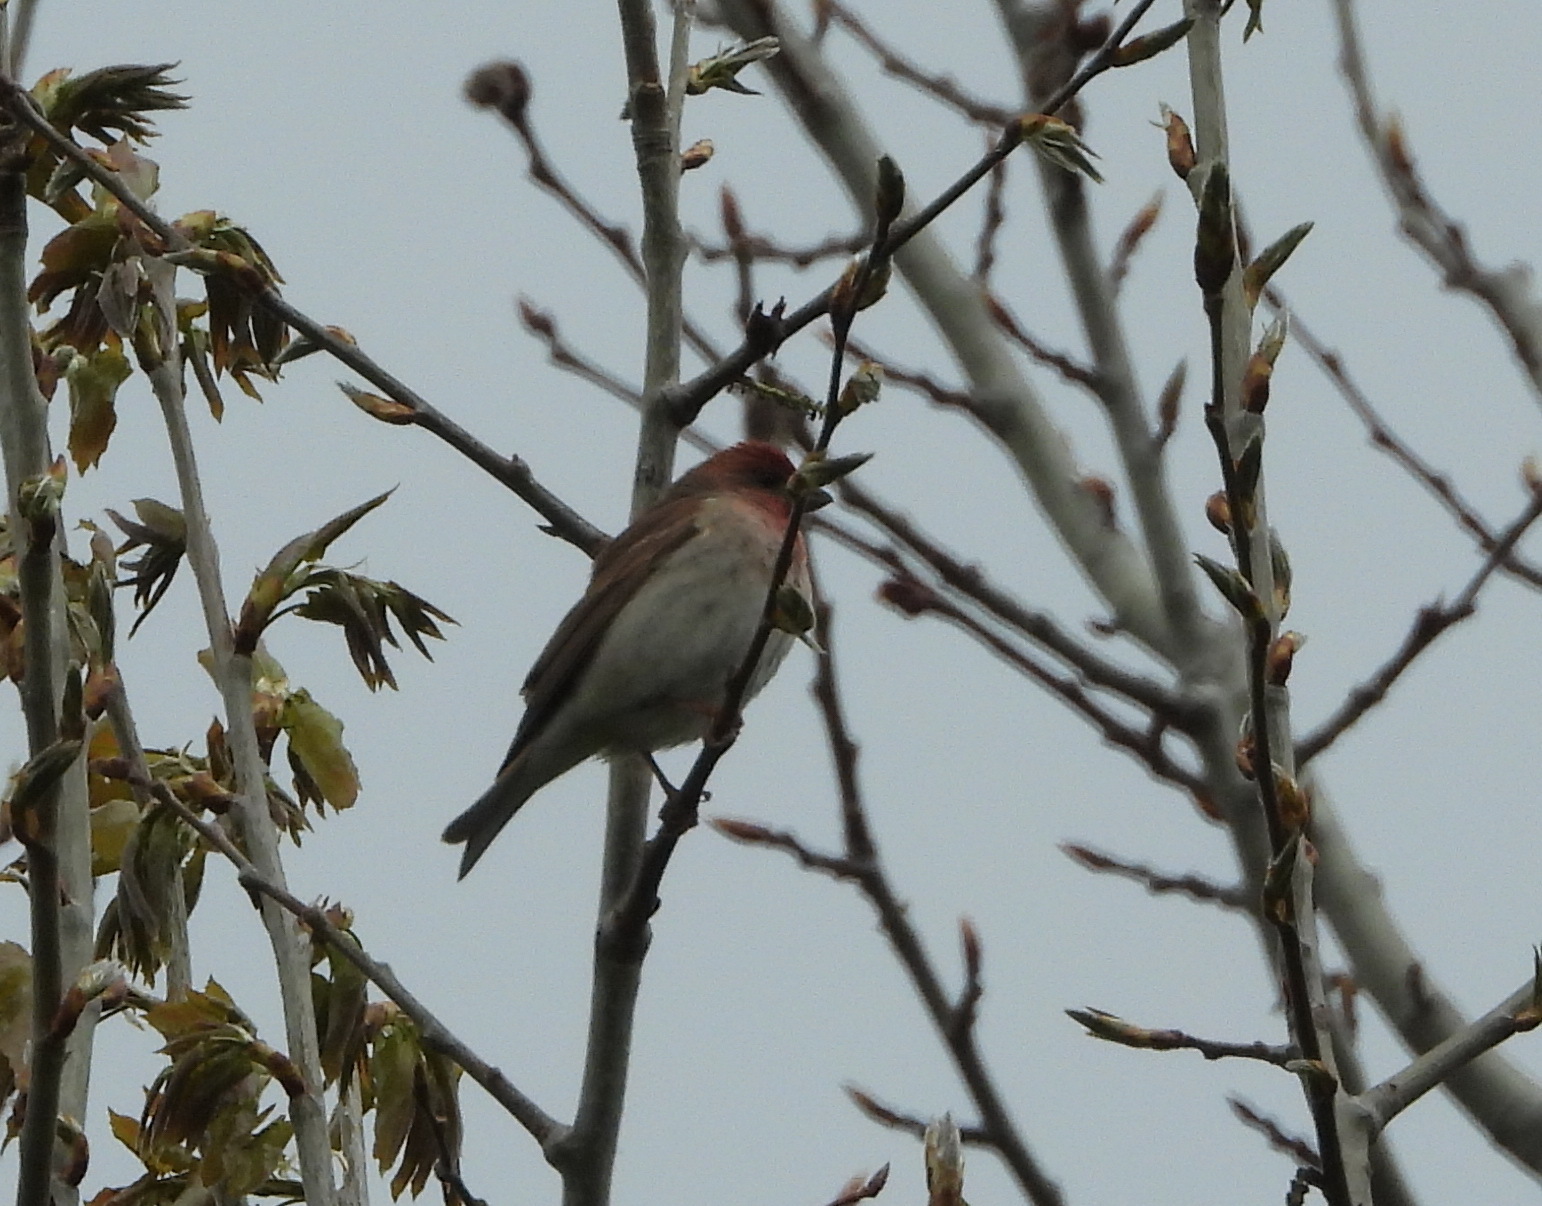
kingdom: Animalia
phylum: Chordata
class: Aves
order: Passeriformes
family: Fringillidae
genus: Carpodacus
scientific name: Carpodacus erythrinus
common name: Common rosefinch
